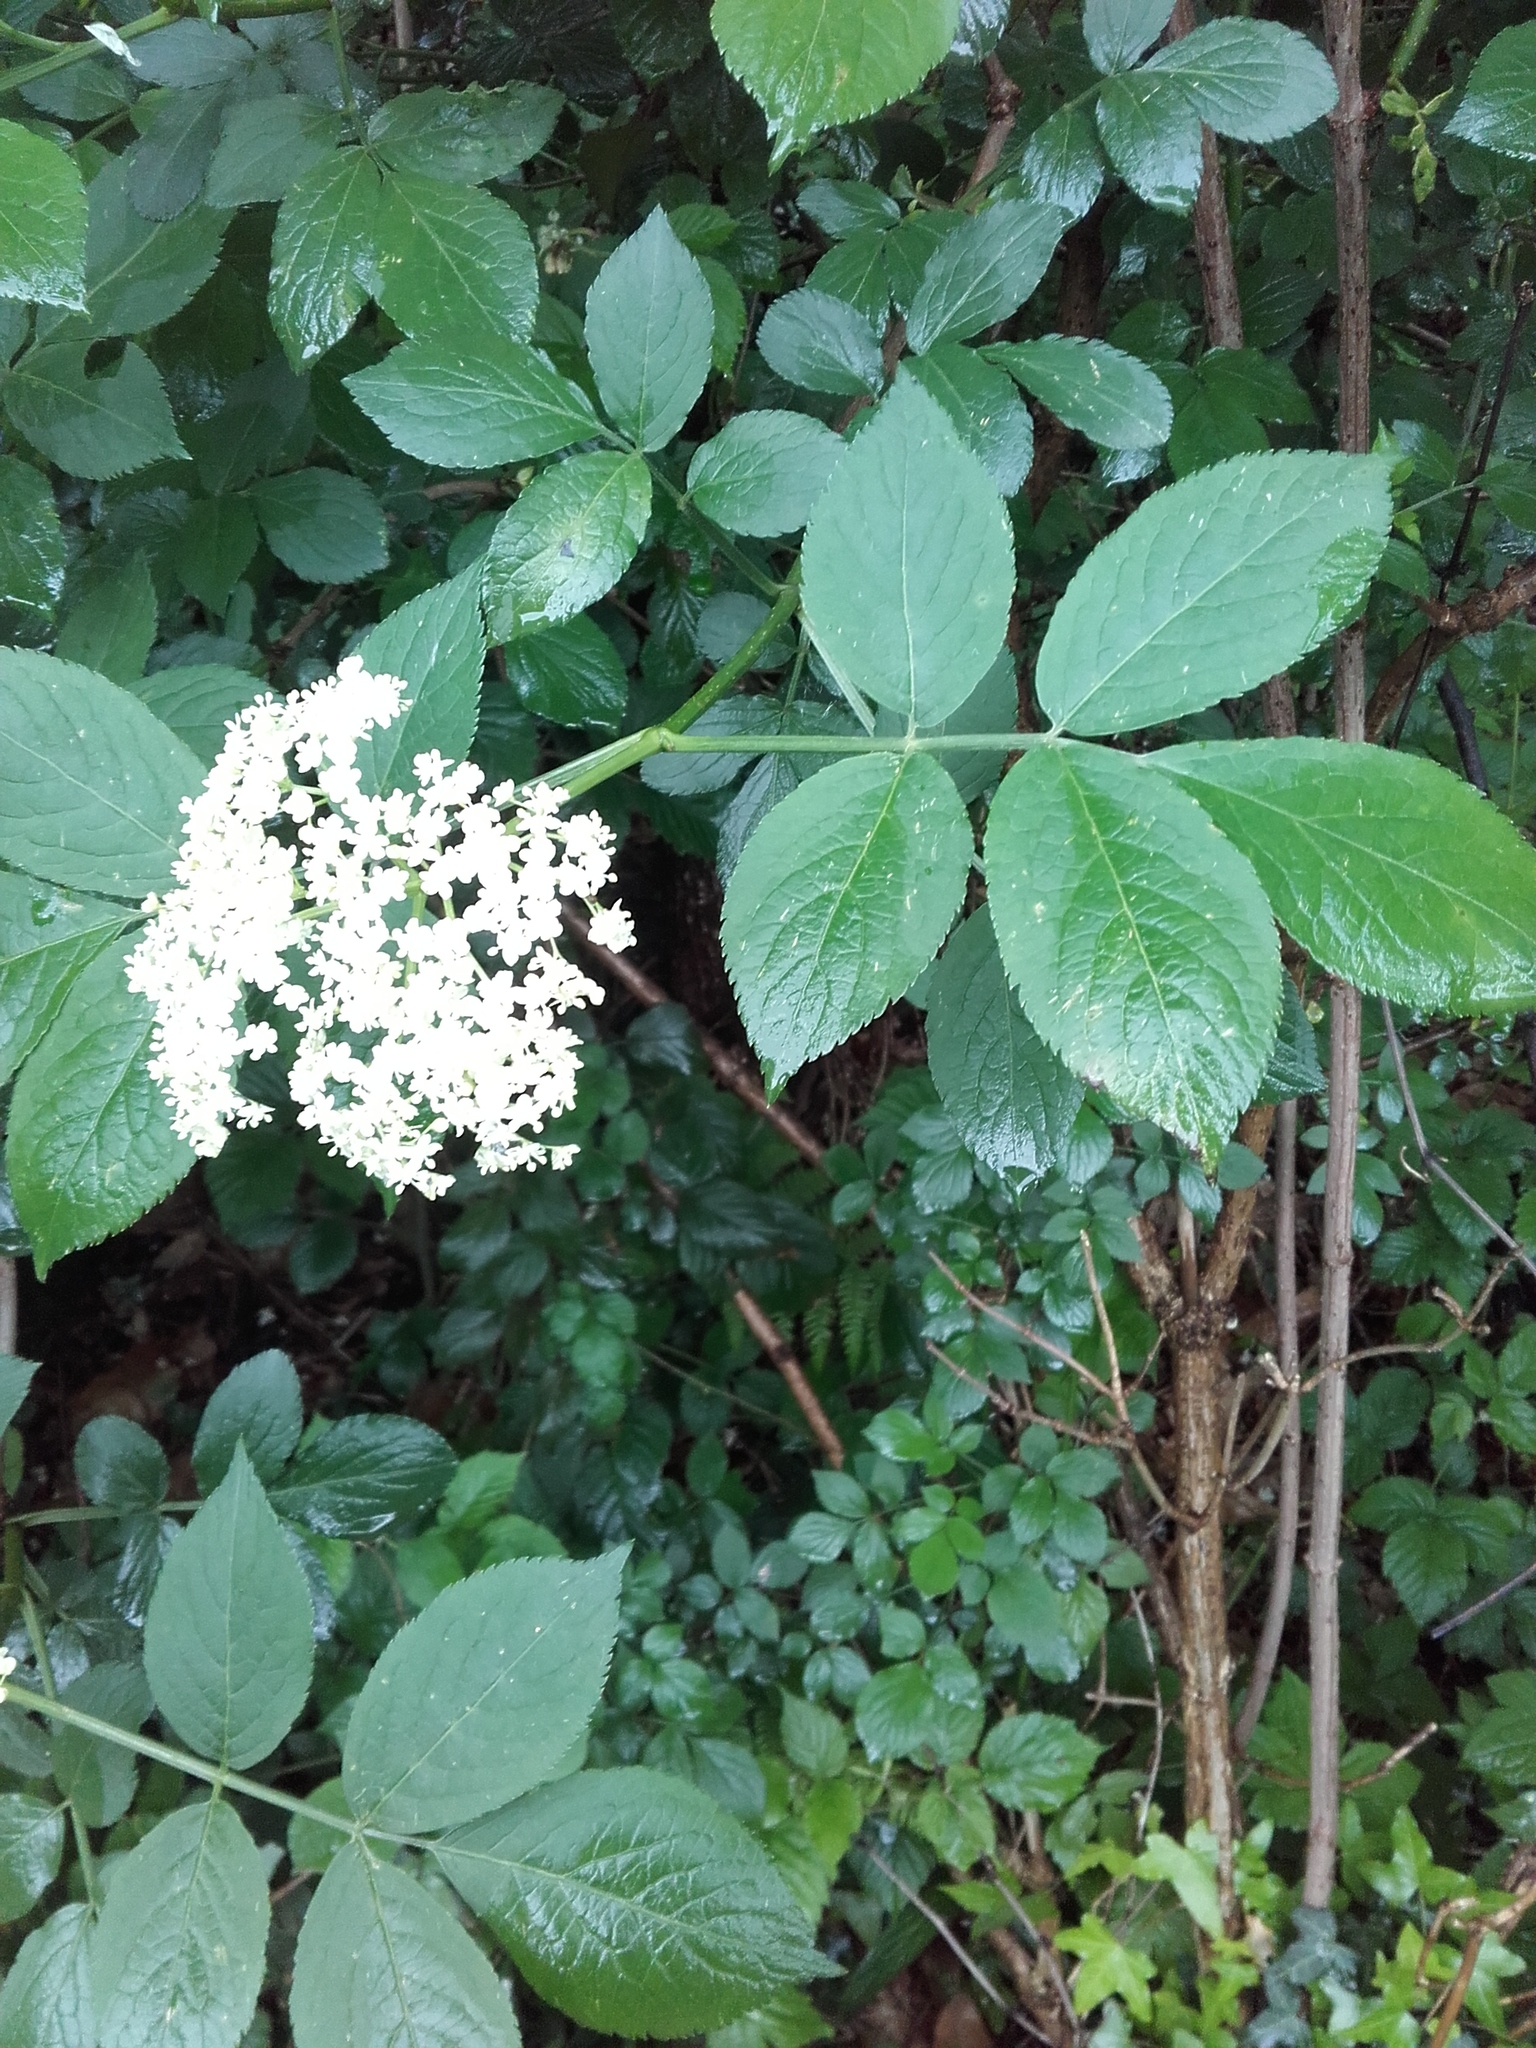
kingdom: Plantae
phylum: Tracheophyta
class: Magnoliopsida
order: Dipsacales
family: Viburnaceae
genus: Sambucus
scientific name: Sambucus nigra
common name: Elder
